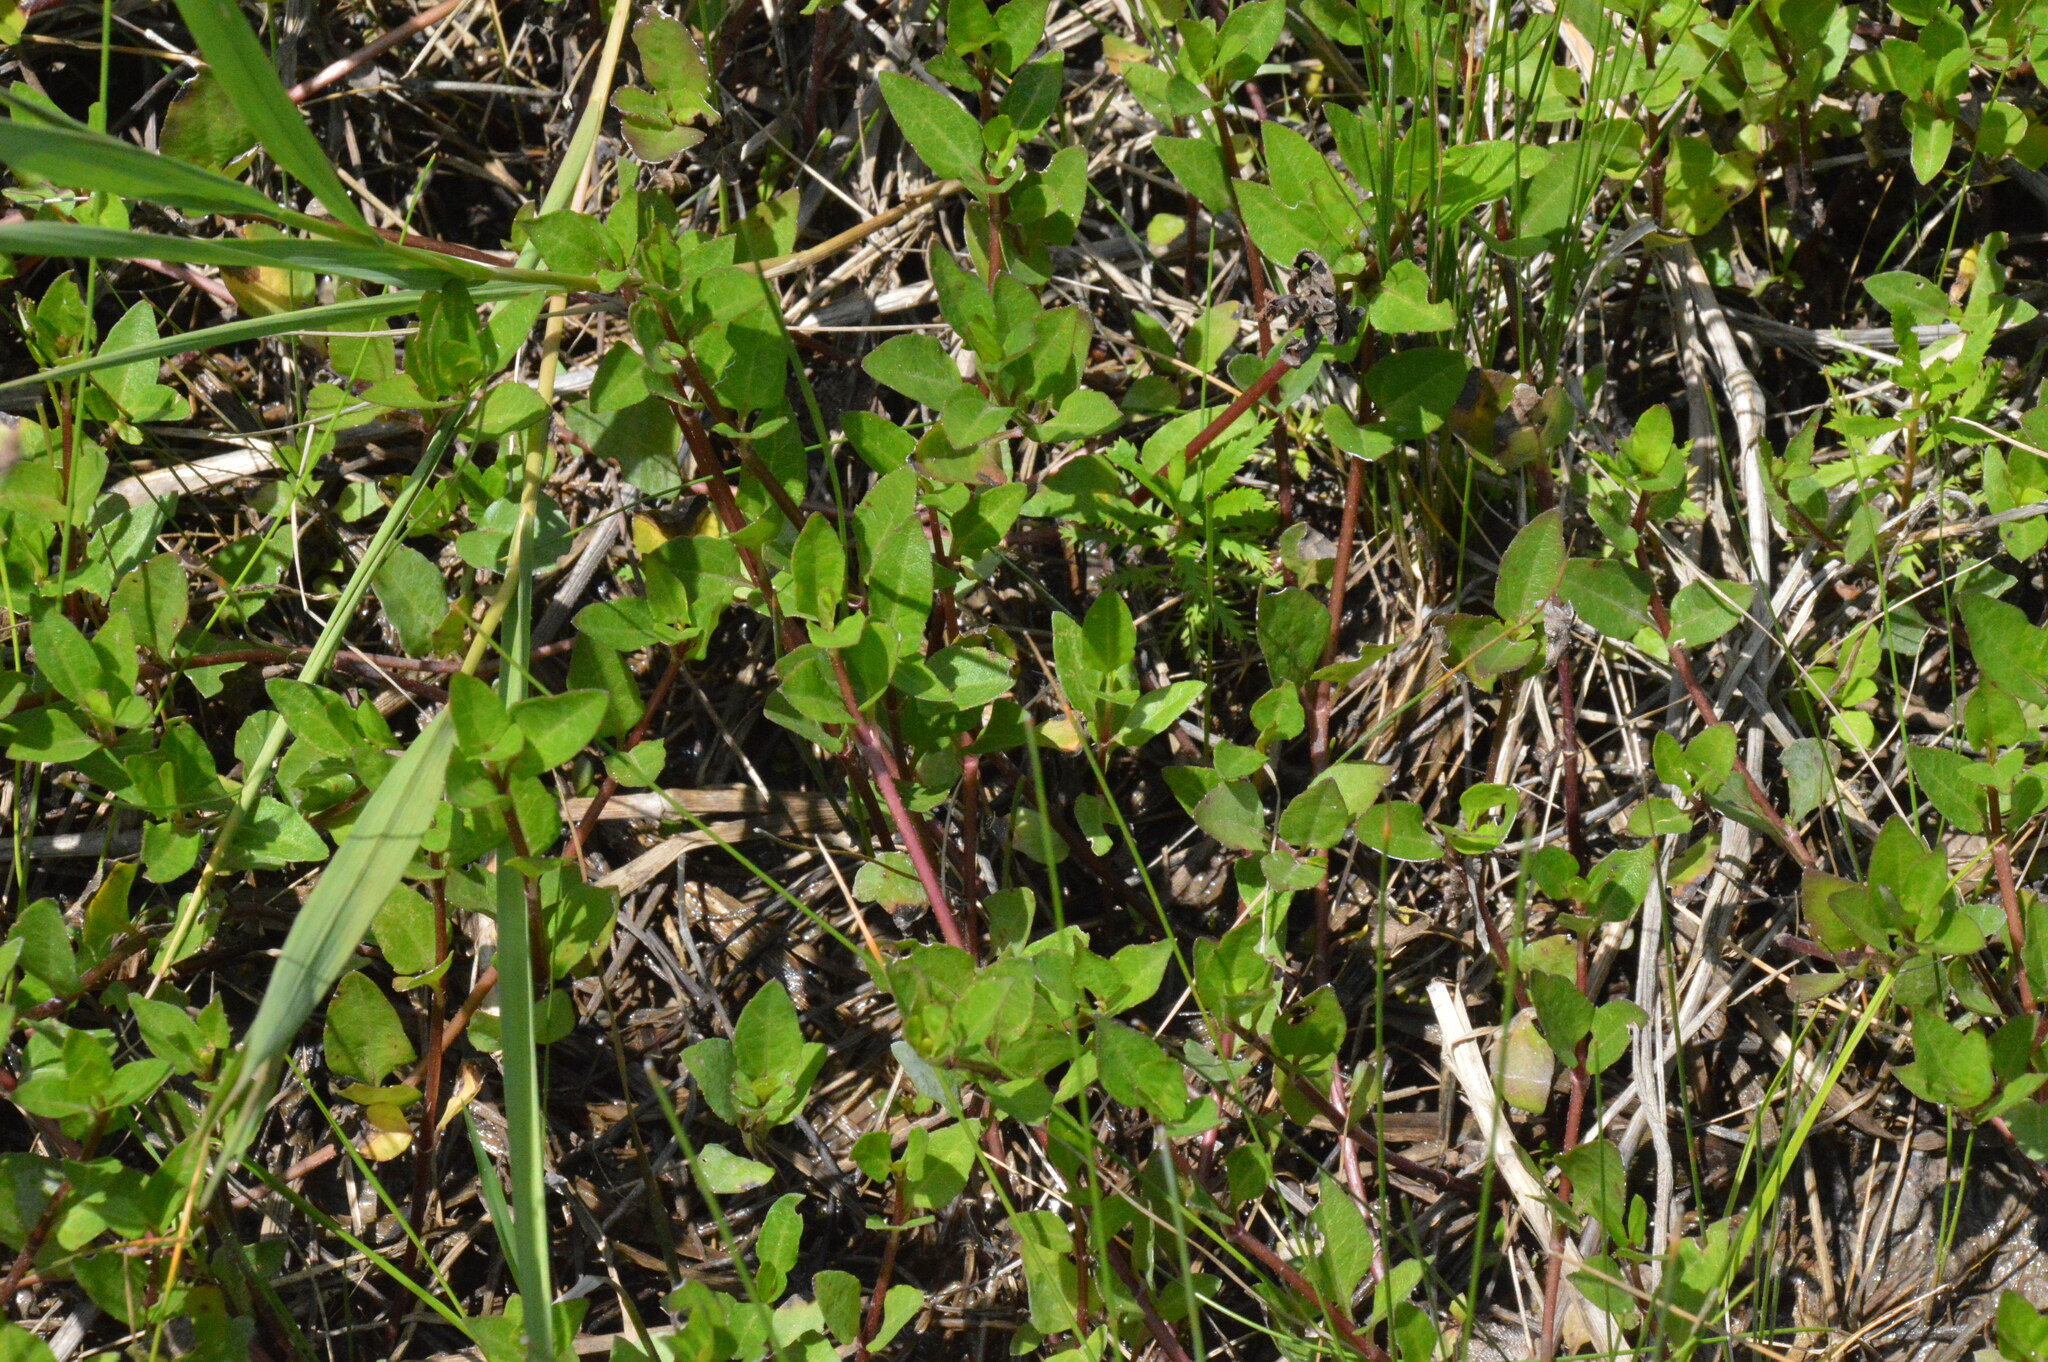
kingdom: Plantae
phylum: Tracheophyta
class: Magnoliopsida
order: Asterales
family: Asteraceae
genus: Acmella
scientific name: Acmella repens
